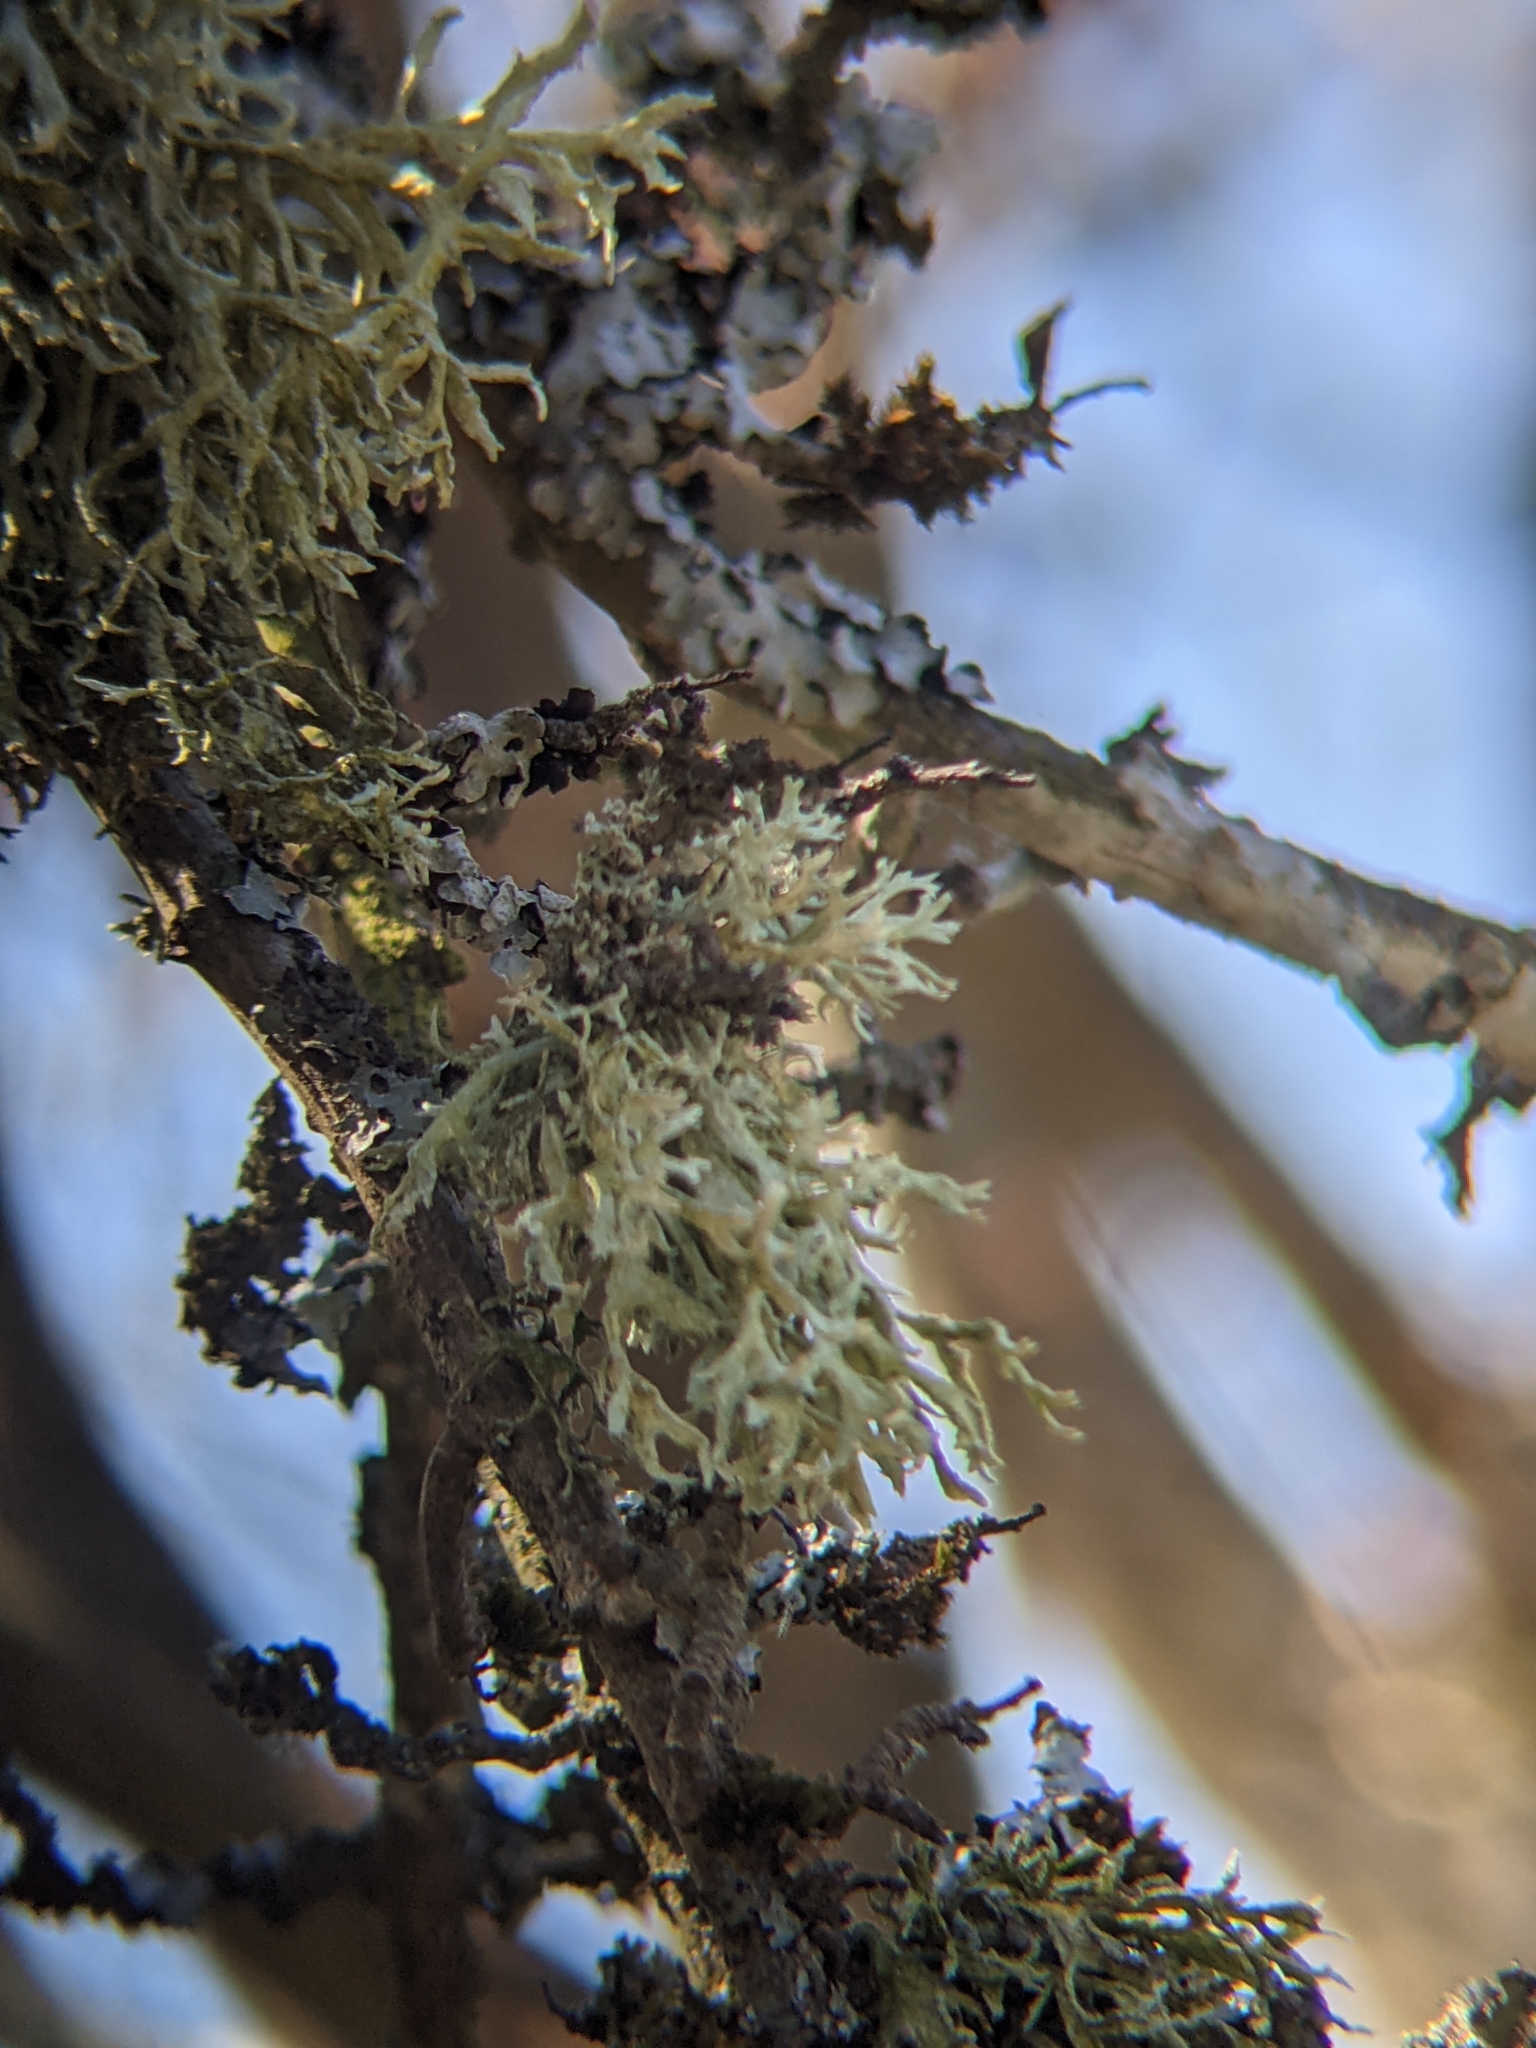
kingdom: Fungi
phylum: Ascomycota
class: Lecanoromycetes
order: Lecanorales
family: Parmeliaceae
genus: Evernia
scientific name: Evernia prunastri
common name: Oak moss
